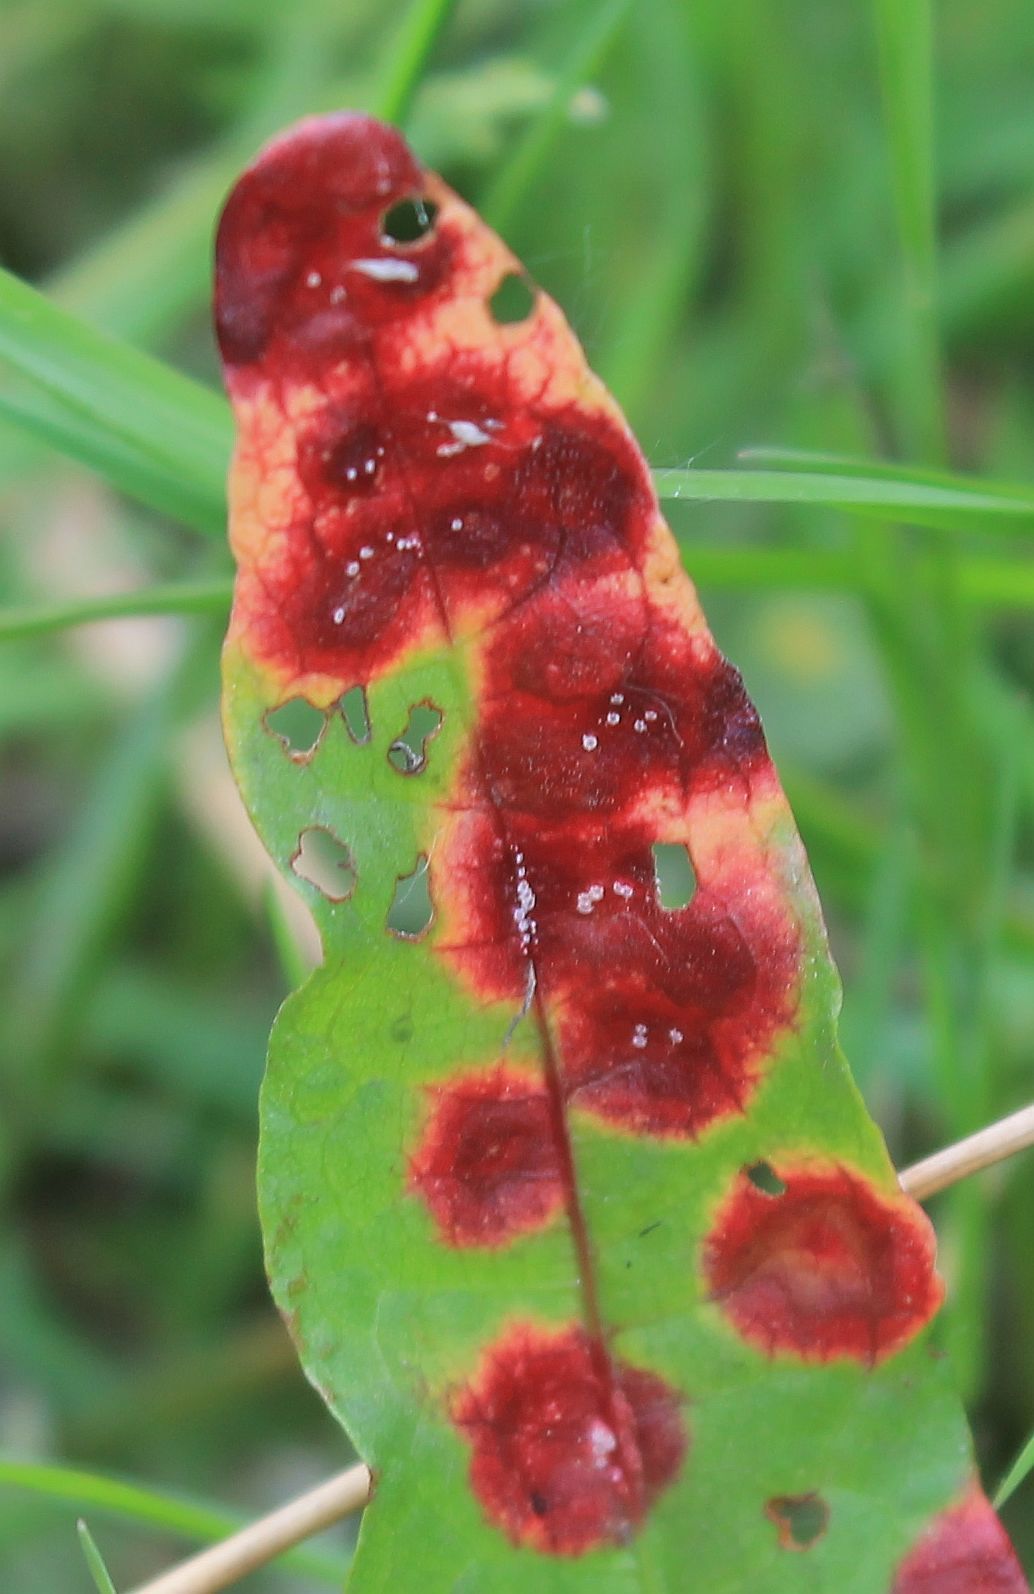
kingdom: Fungi
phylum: Basidiomycota
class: Pucciniomycetes
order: Pucciniales
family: Pucciniaceae
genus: Puccinia
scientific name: Puccinia phragmitis
